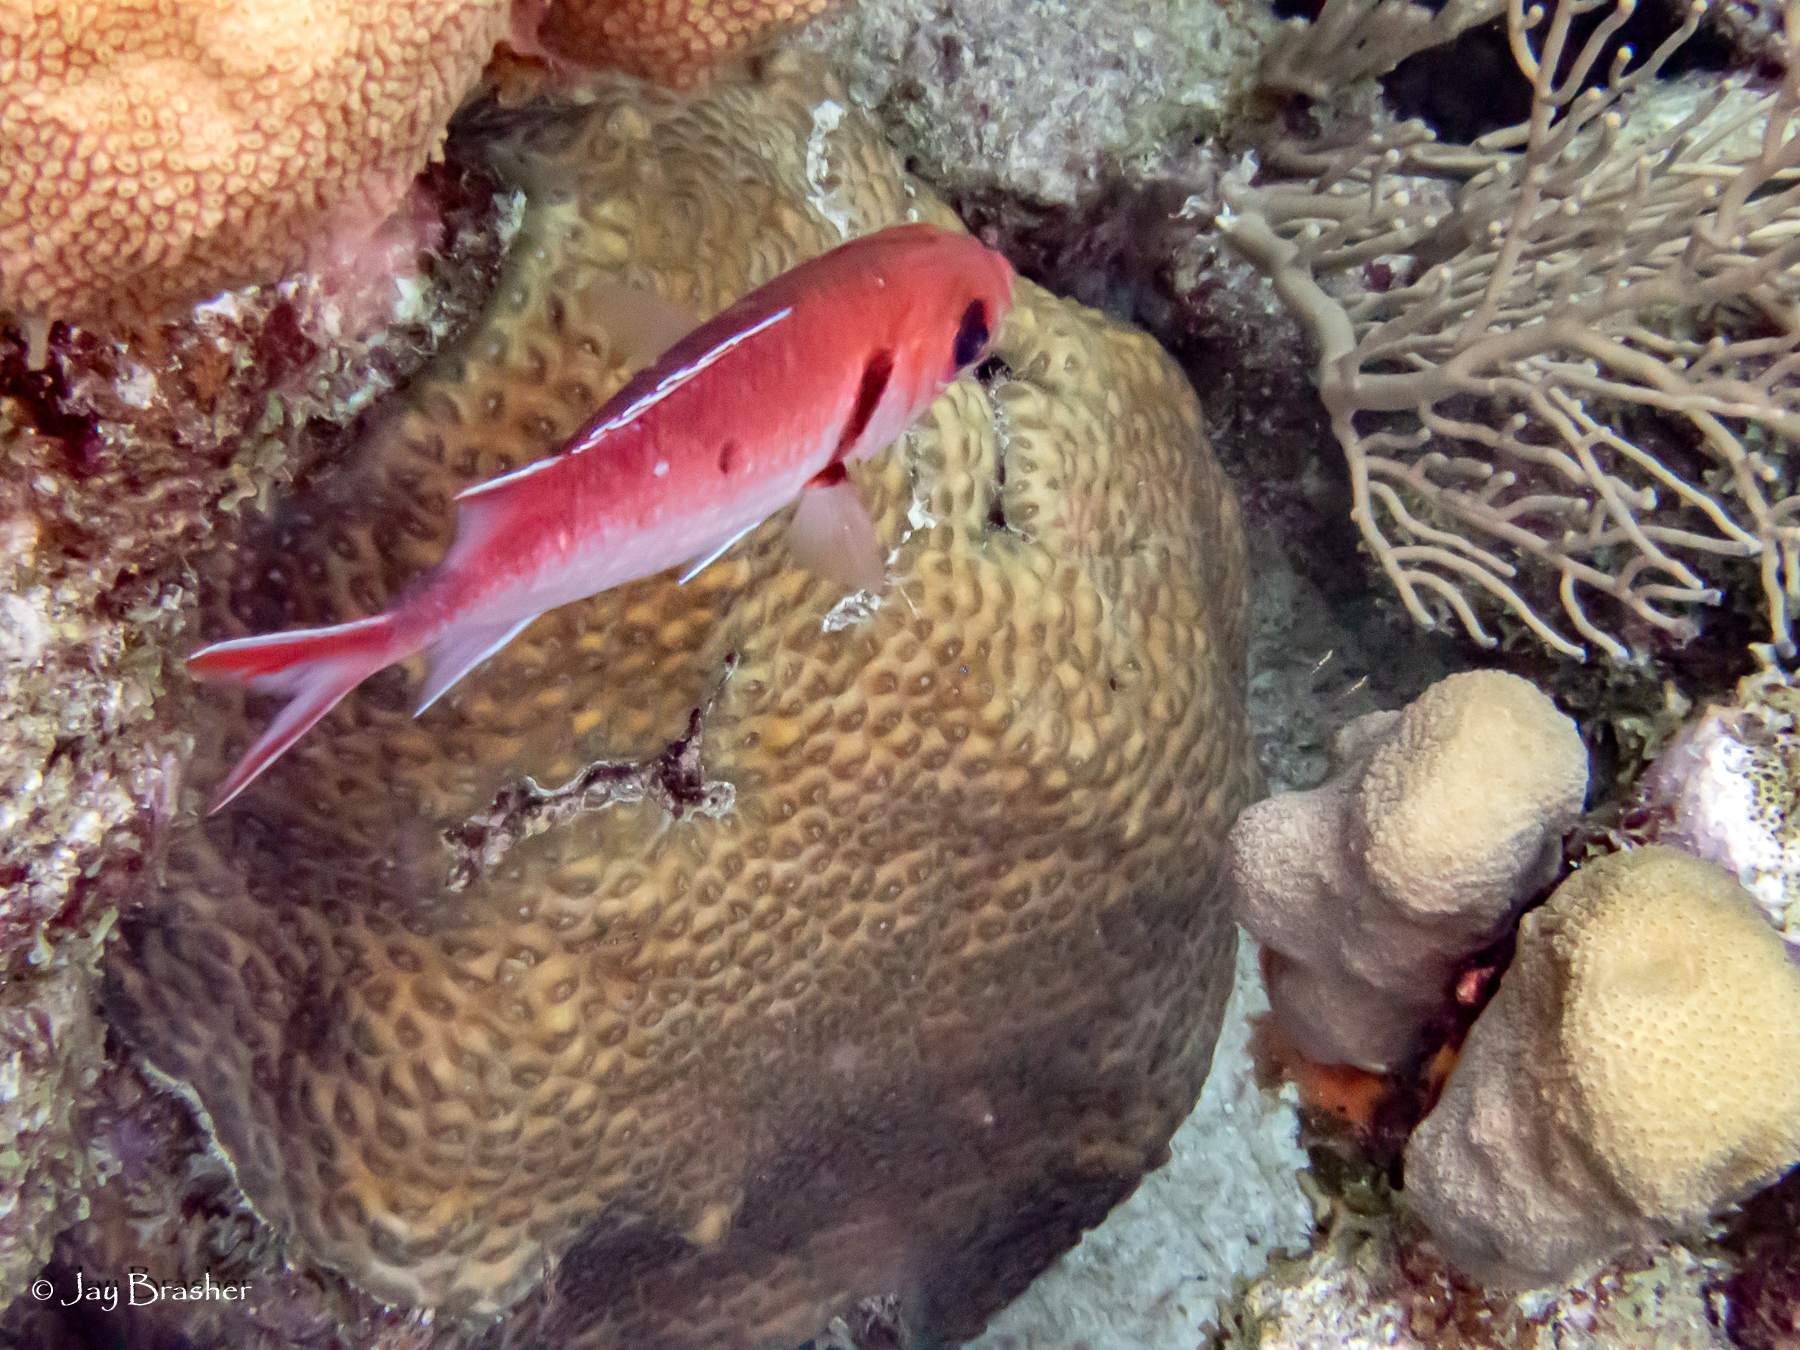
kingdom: Animalia
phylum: Cnidaria
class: Anthozoa
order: Scleractinia
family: Montastraeidae
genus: Montastraea
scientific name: Montastraea cavernosa
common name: Great star coral
